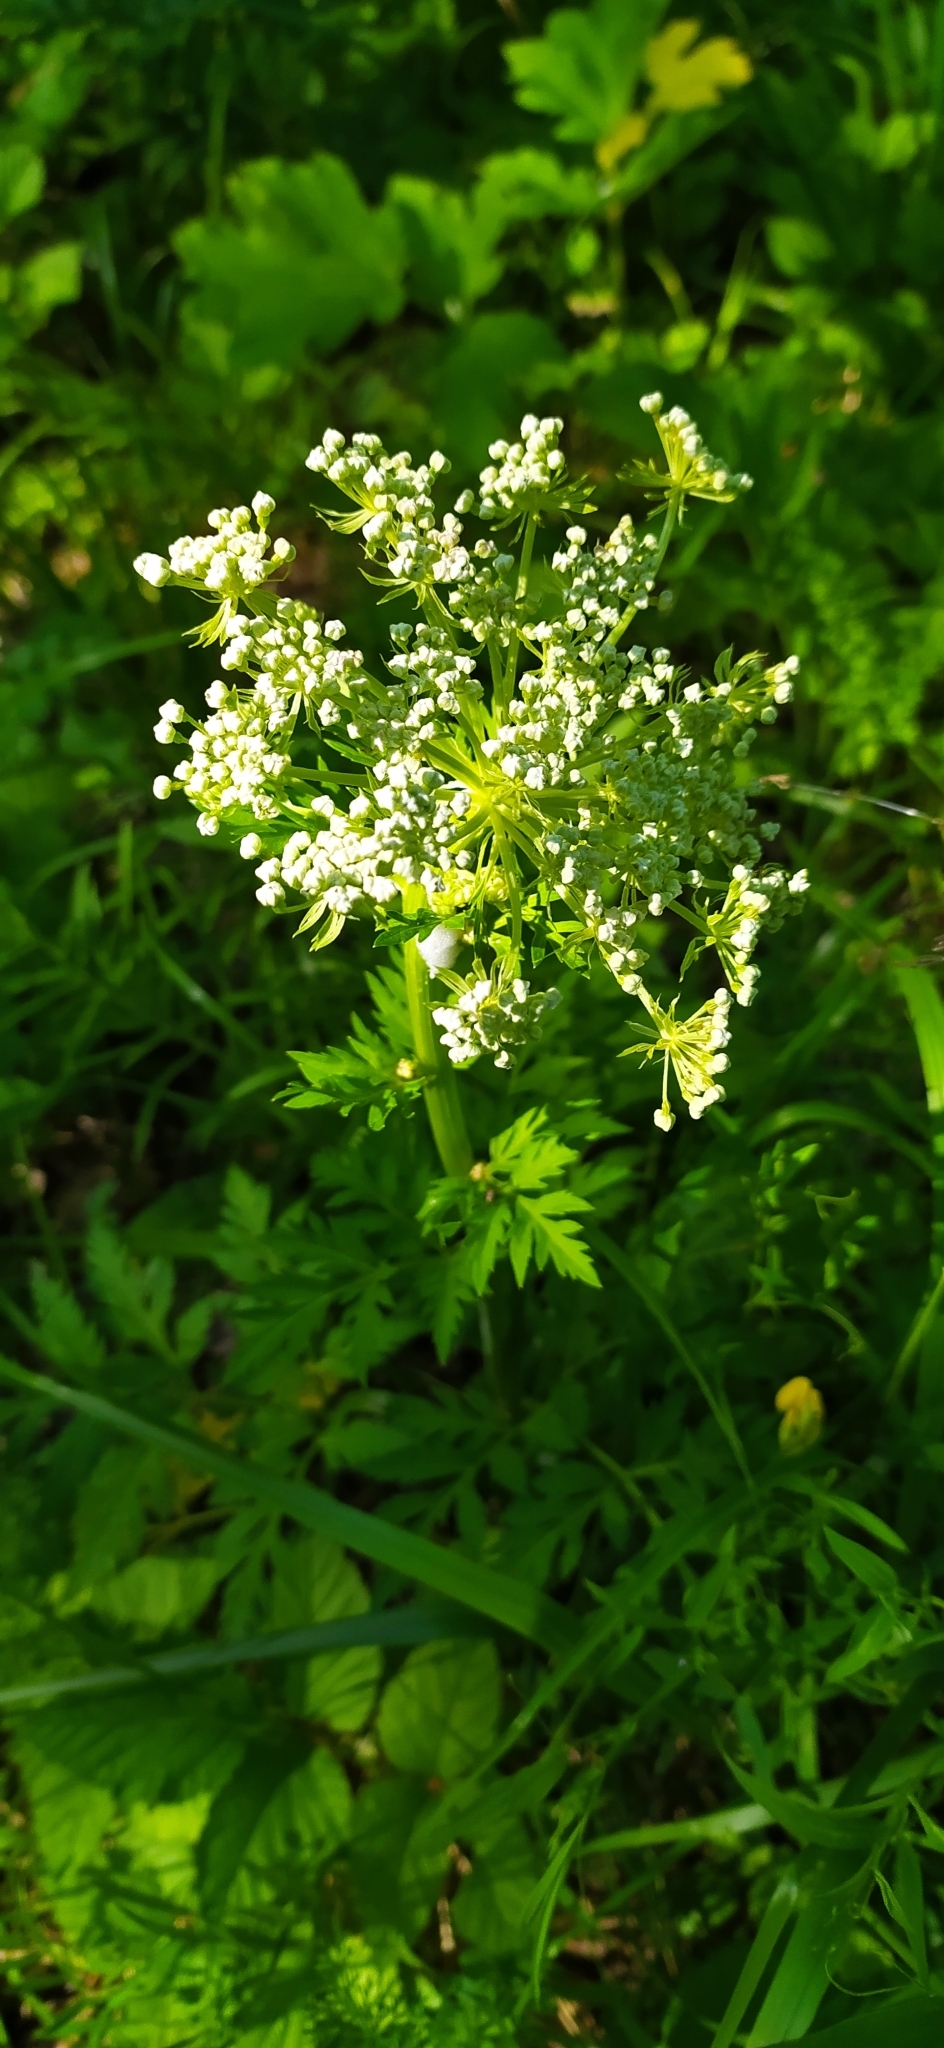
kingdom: Plantae
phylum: Tracheophyta
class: Magnoliopsida
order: Apiales
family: Apiaceae
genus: Pleurospermum
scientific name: Pleurospermum uralense
